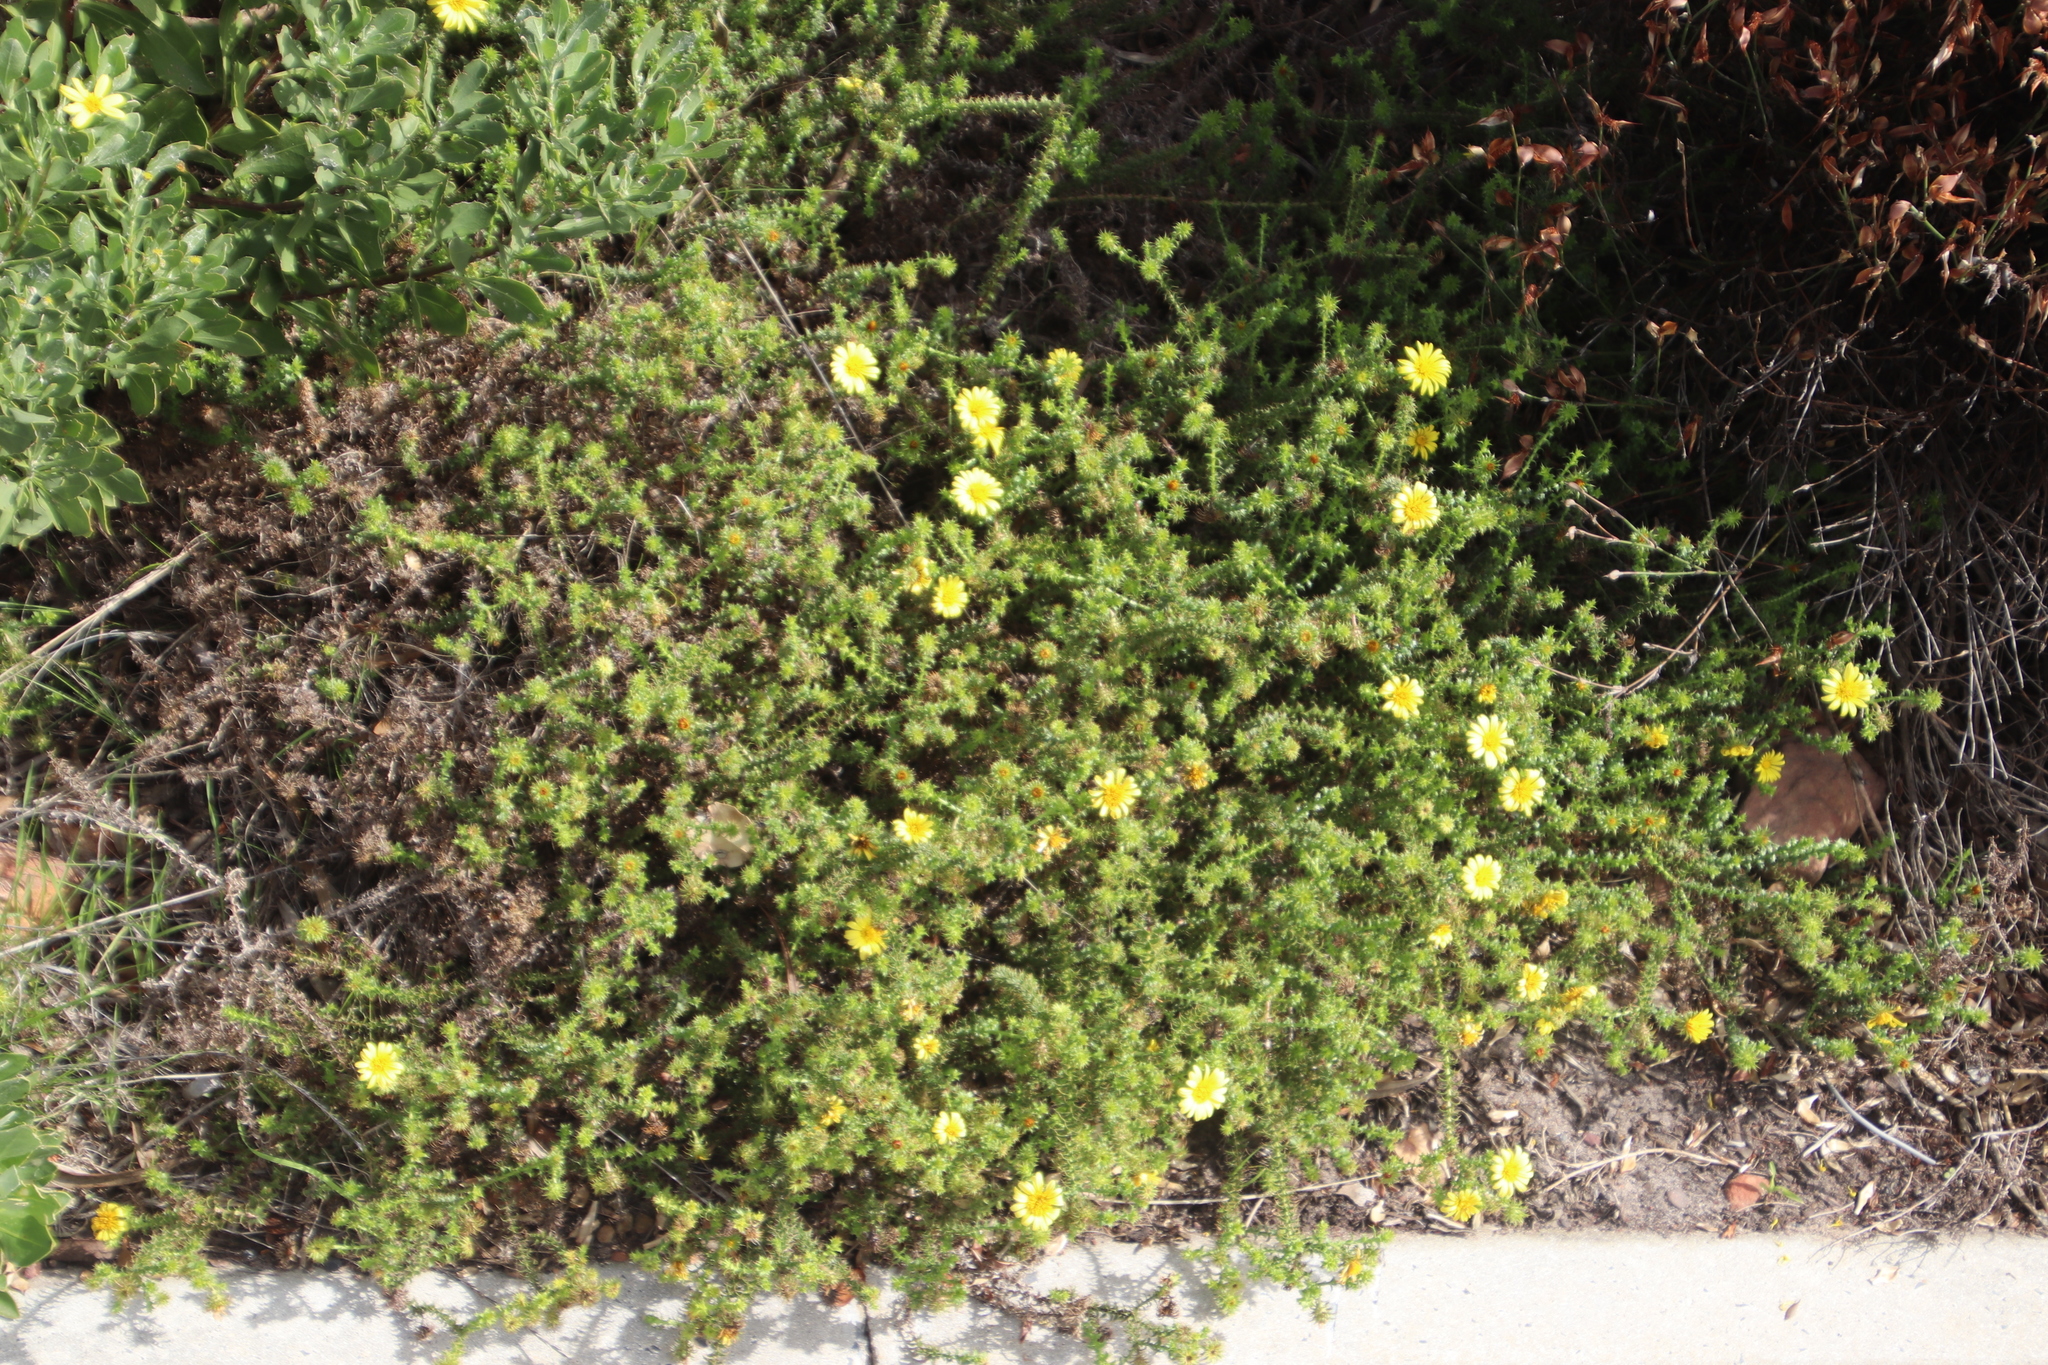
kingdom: Plantae
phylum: Tracheophyta
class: Magnoliopsida
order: Asterales
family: Asteraceae
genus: Cullumia
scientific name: Cullumia setosa
